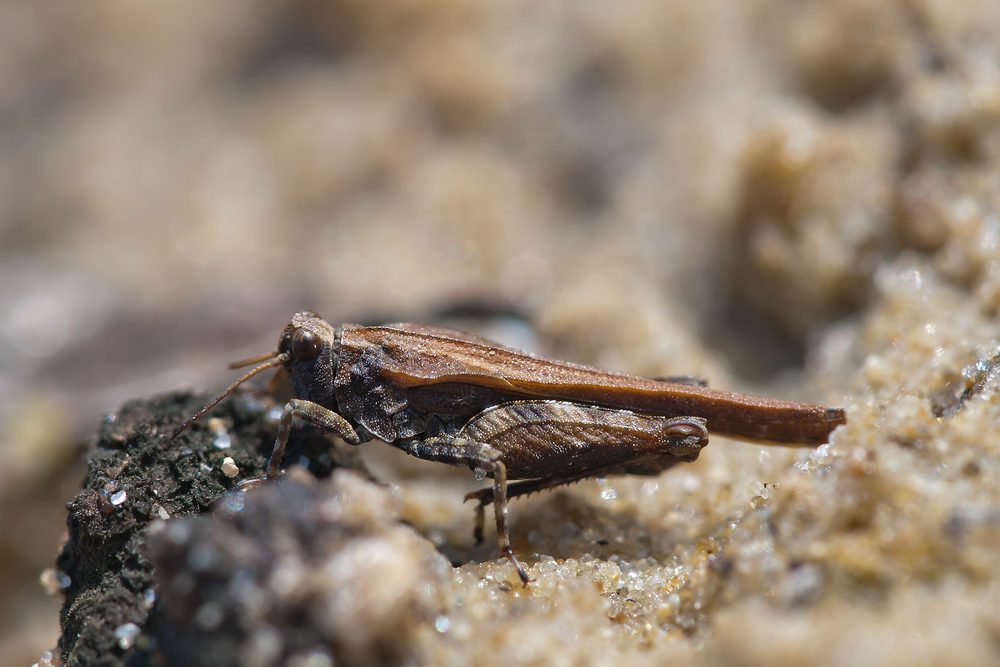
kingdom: Animalia
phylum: Arthropoda
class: Insecta
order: Orthoptera
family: Tetrigidae
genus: Tetrix
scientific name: Tetrix ceperoi
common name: Cepero's ground-hopper
